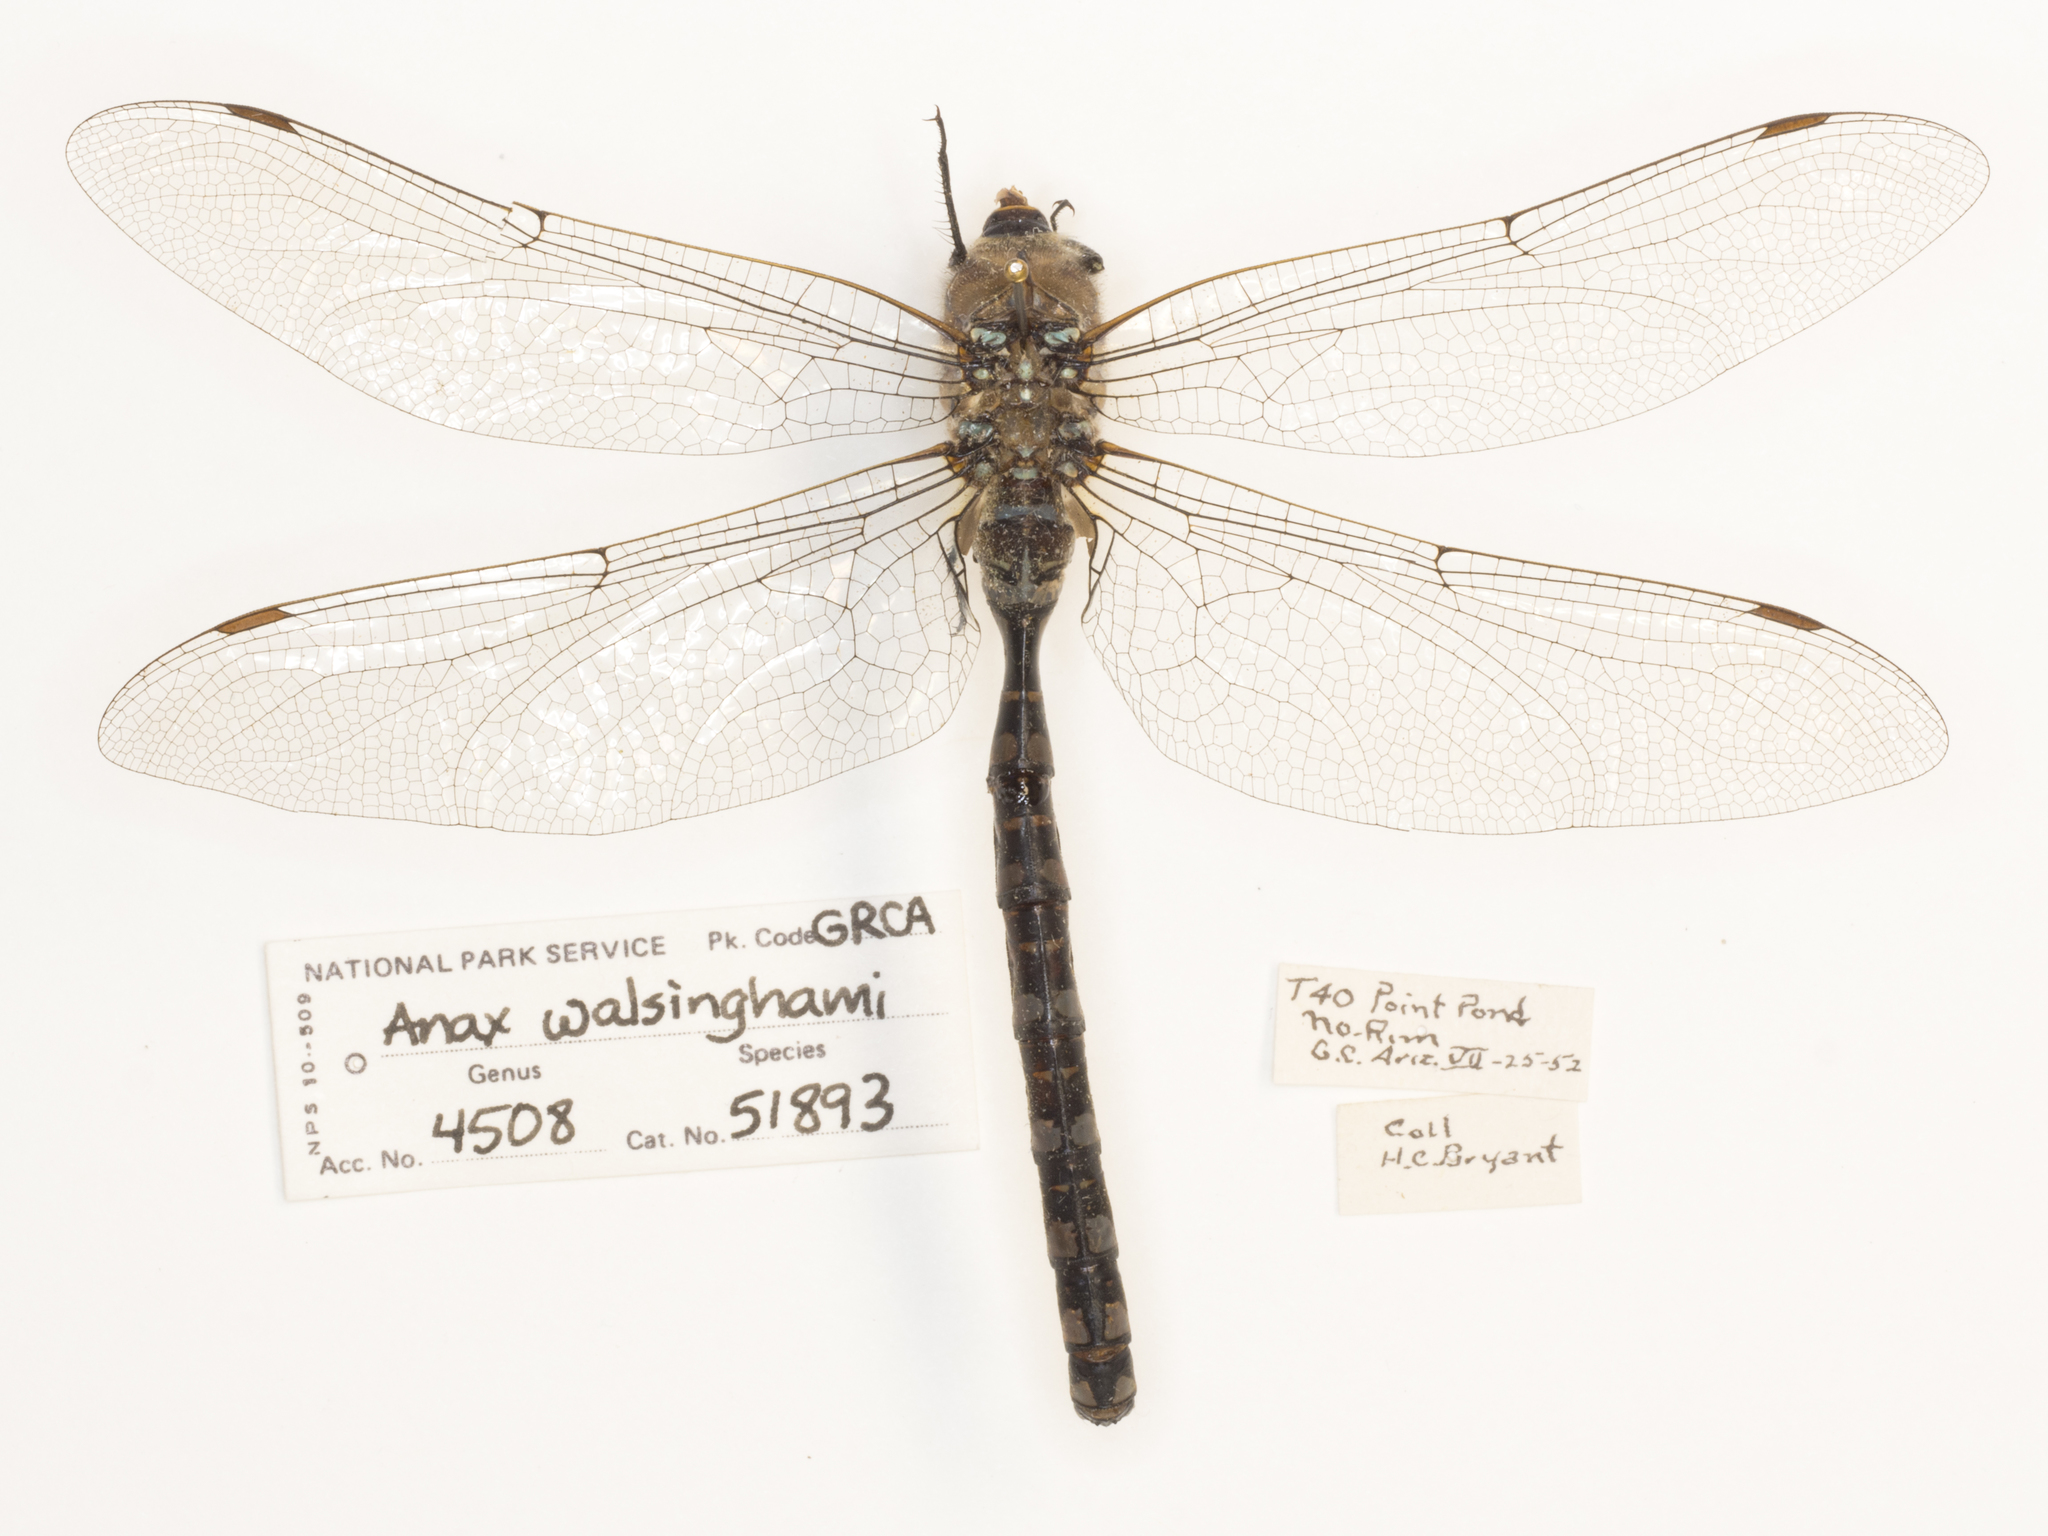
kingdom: Animalia
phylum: Arthropoda
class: Insecta
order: Odonata
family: Aeshnidae
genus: Aeshna
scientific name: Aeshna interrupta
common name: Variable darner
